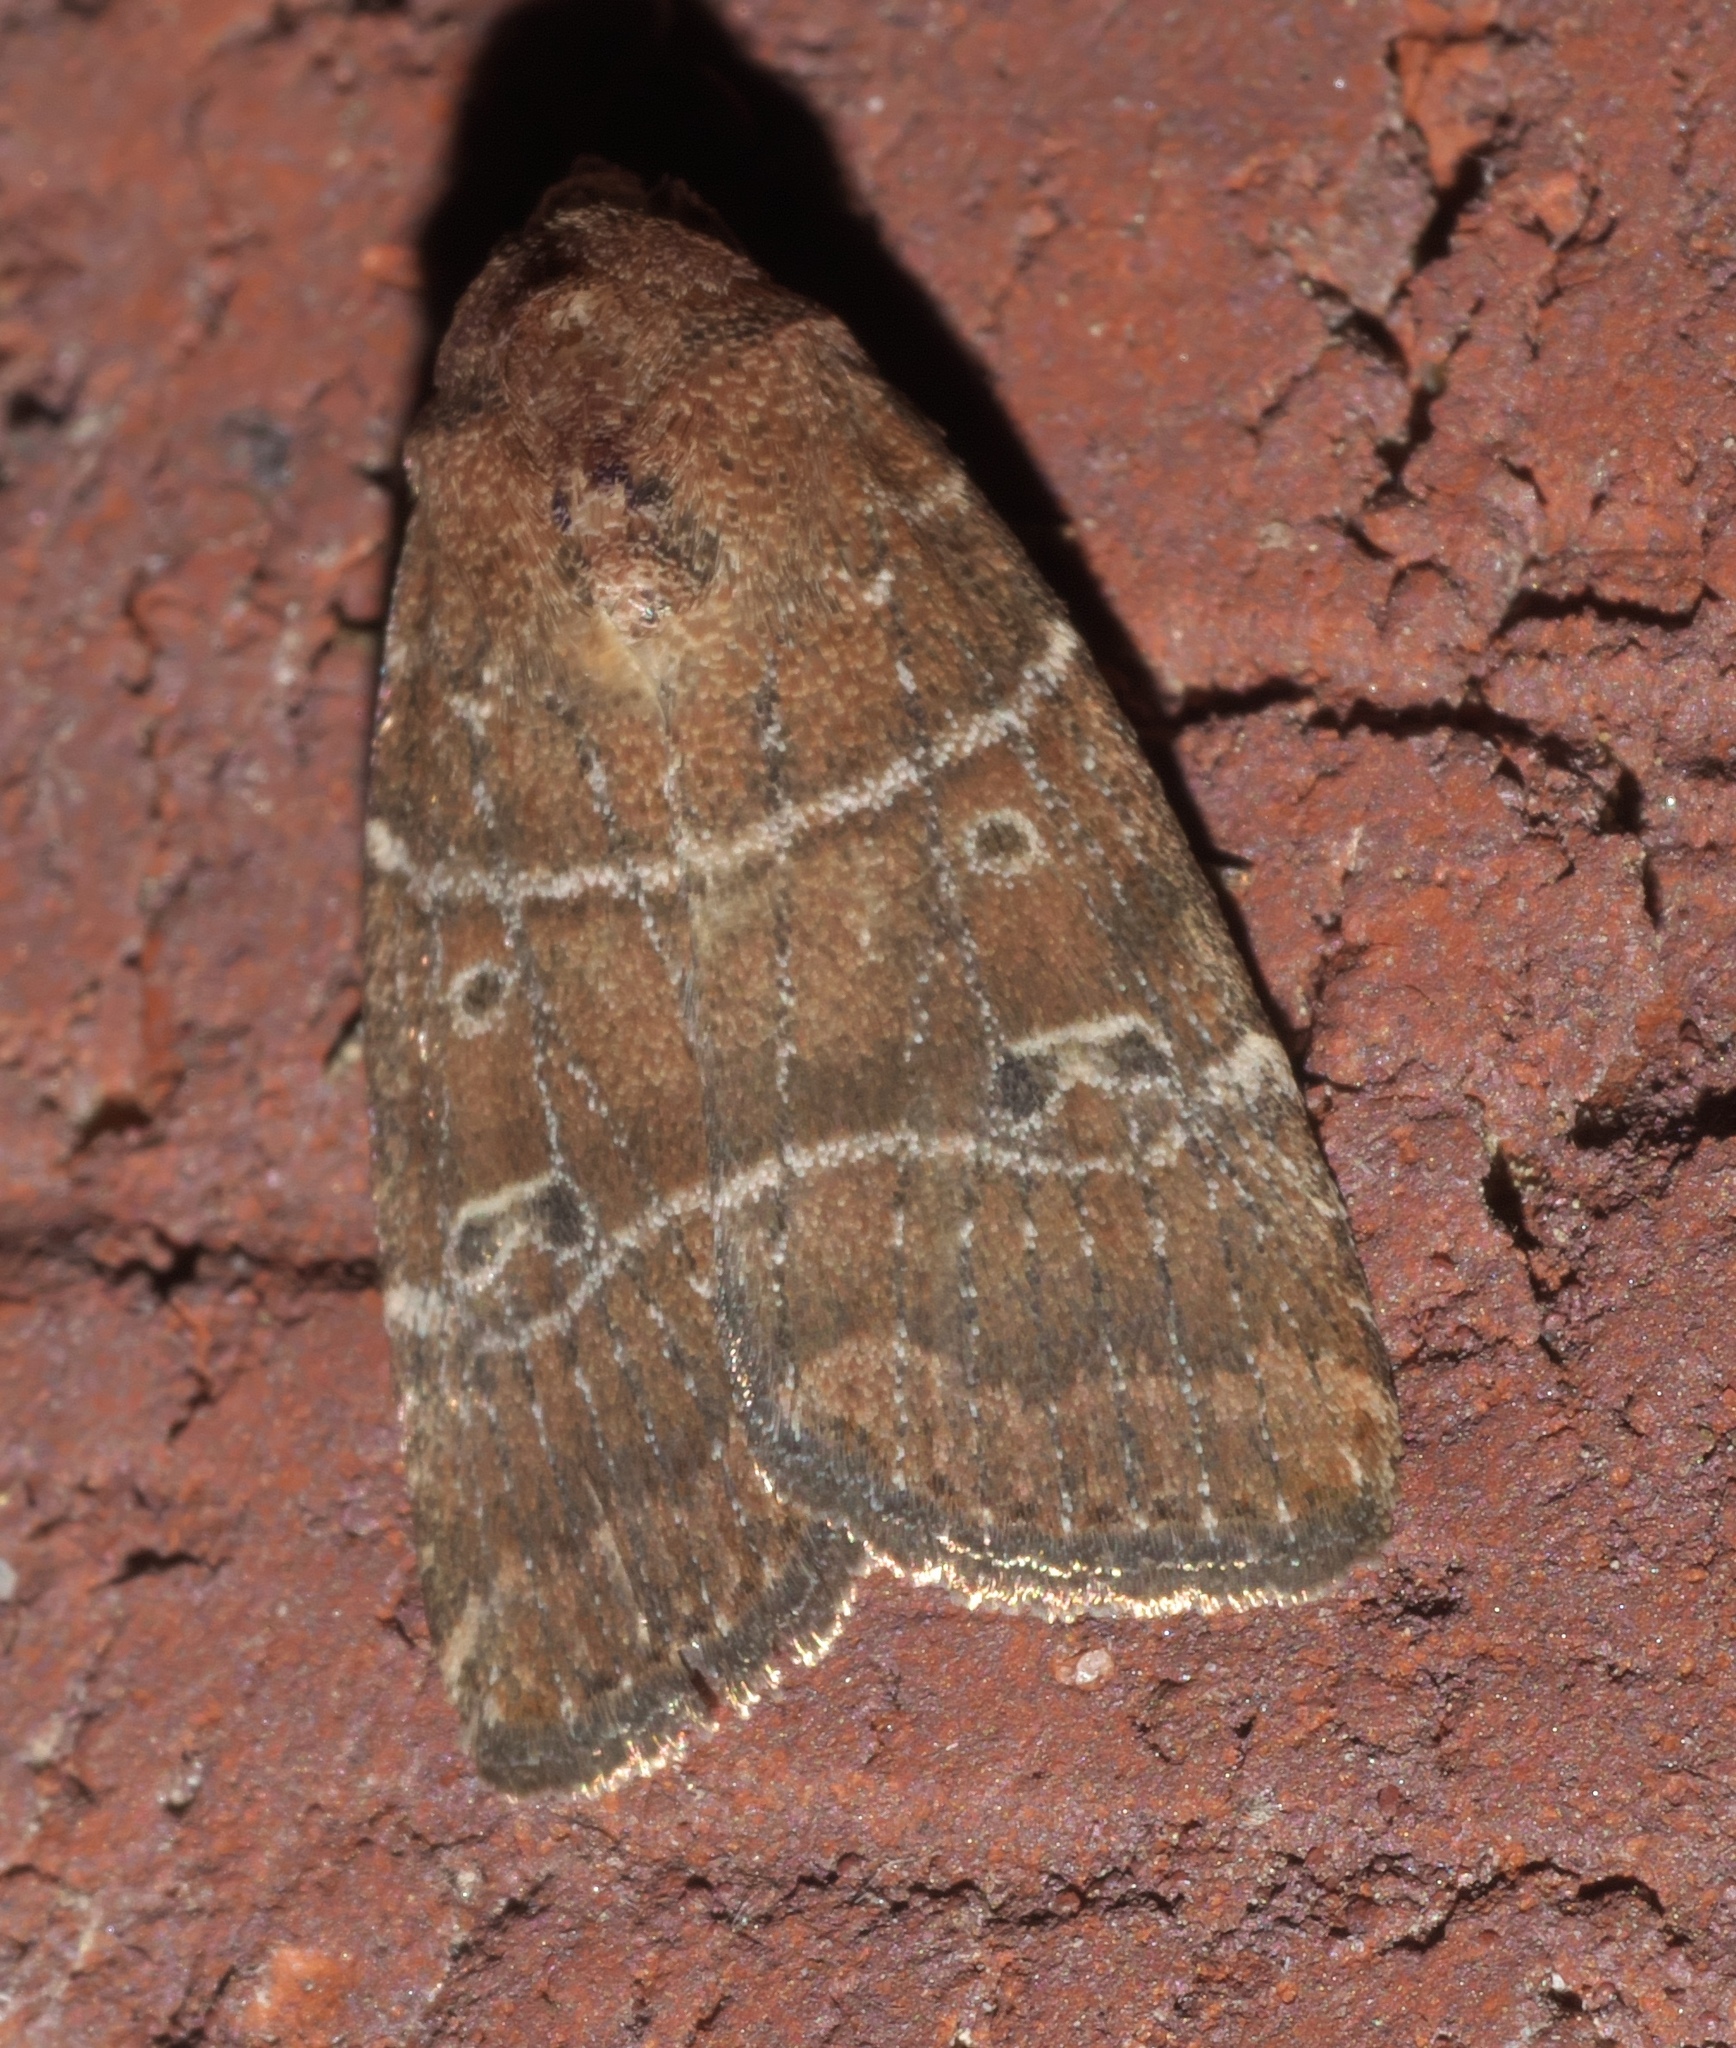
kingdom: Animalia
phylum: Arthropoda
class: Insecta
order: Lepidoptera
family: Noctuidae
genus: Elaphria
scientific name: Elaphria grata
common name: Grateful midget moth
